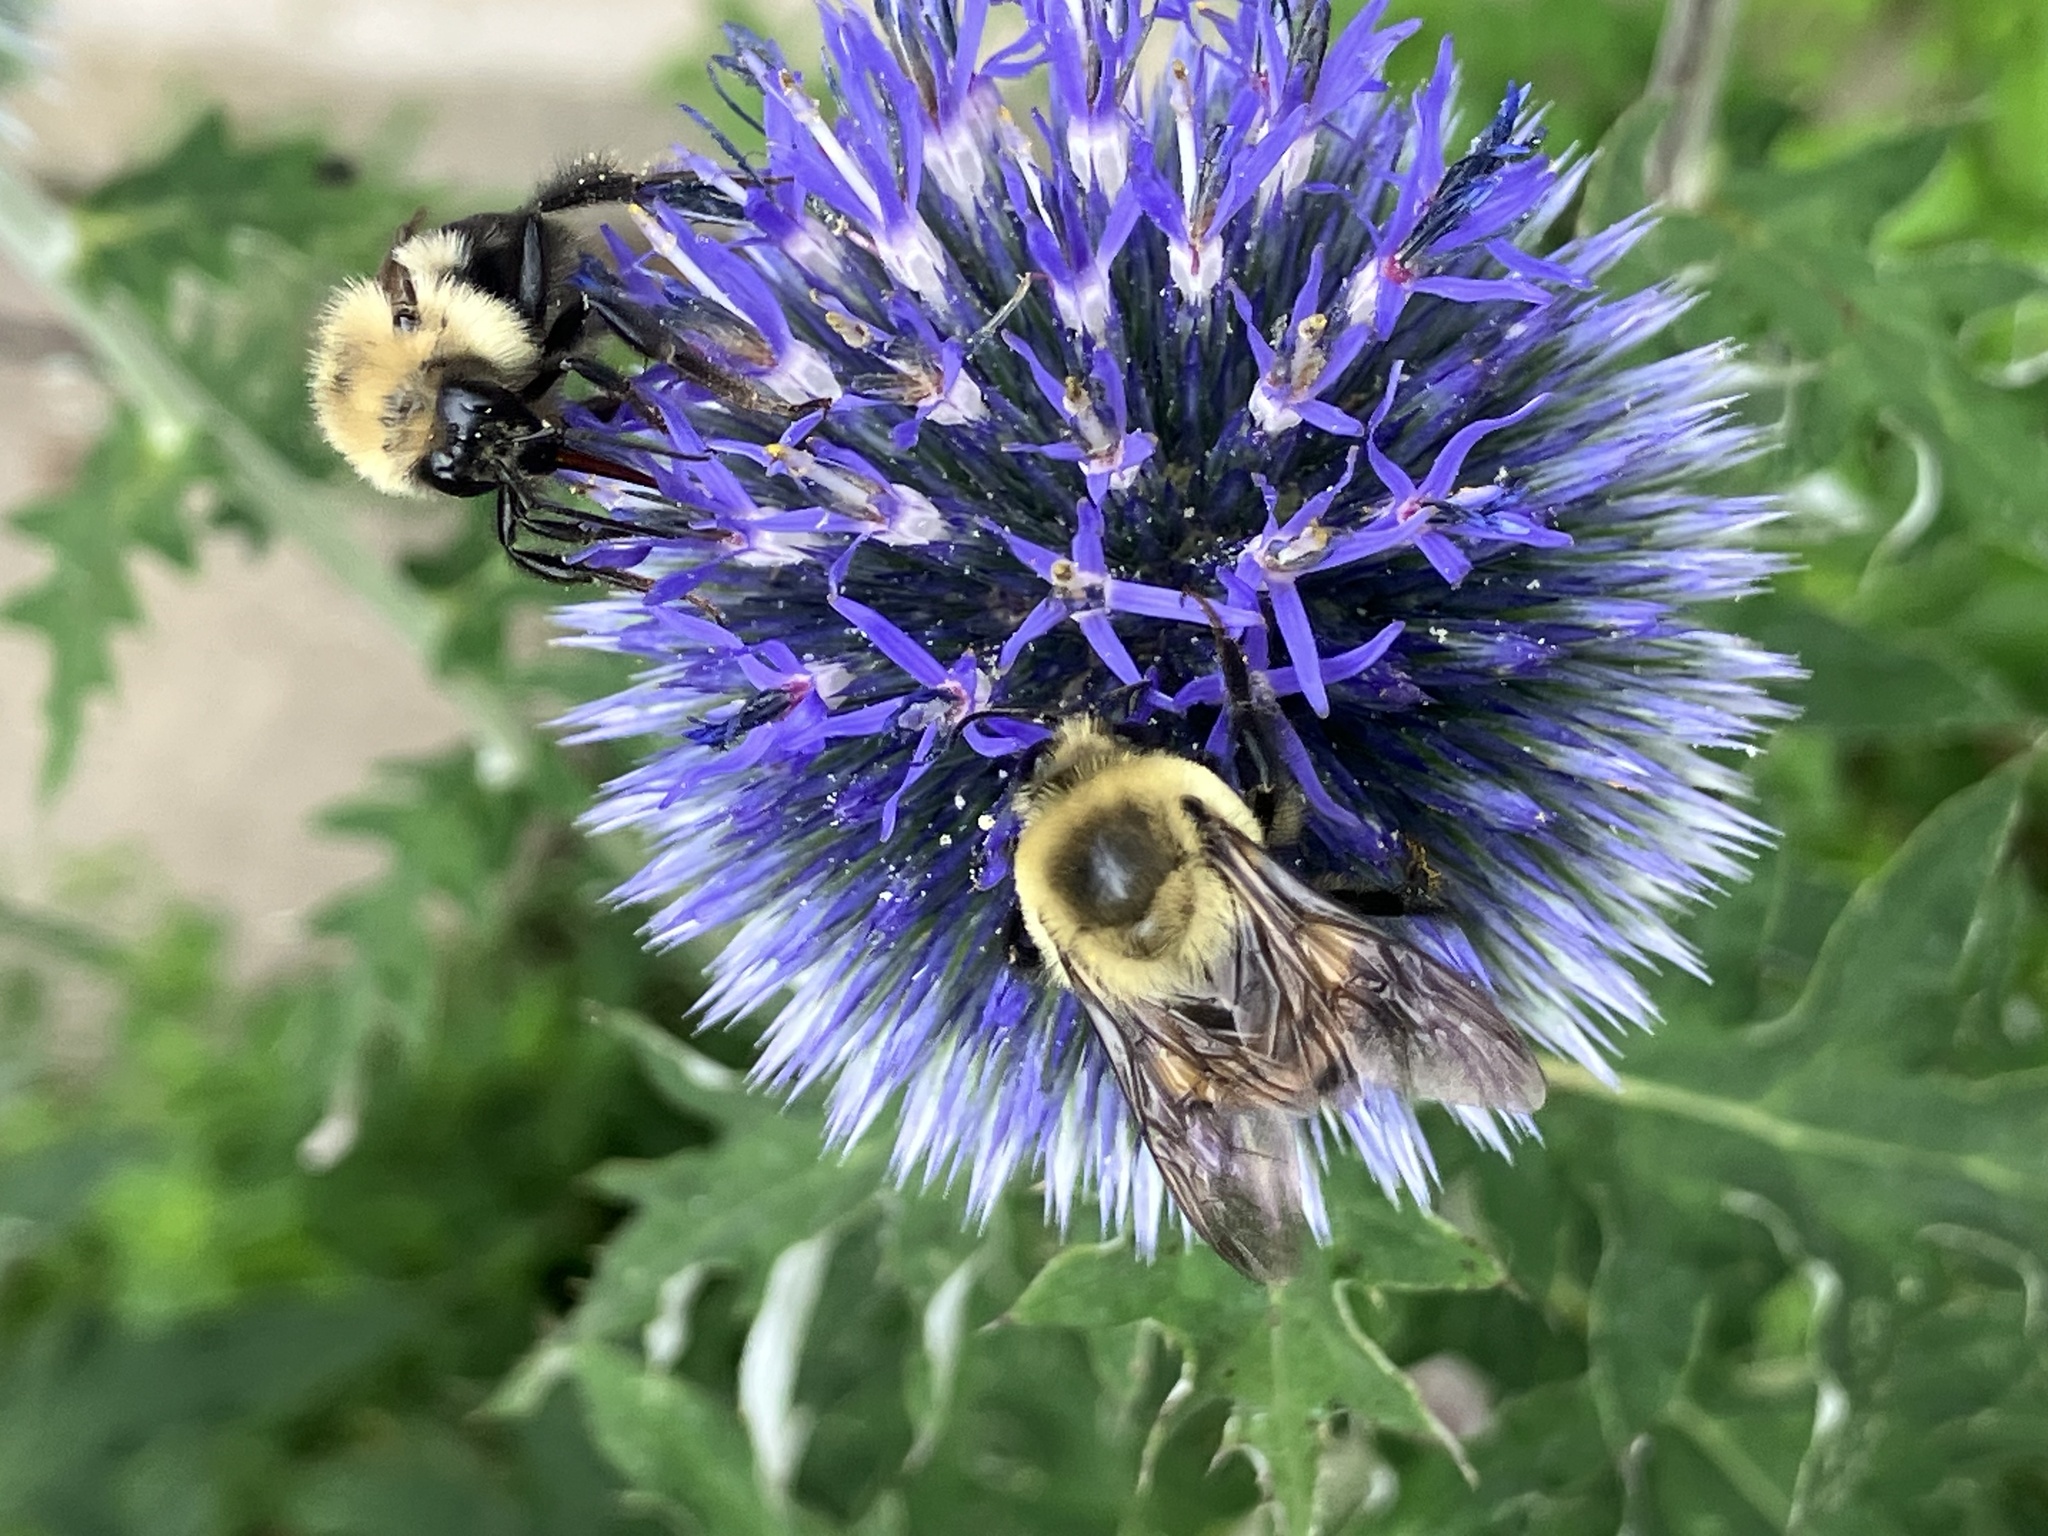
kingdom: Animalia
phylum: Arthropoda
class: Insecta
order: Hymenoptera
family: Apidae
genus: Bombus
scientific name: Bombus bimaculatus
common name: Two-spotted bumble bee
